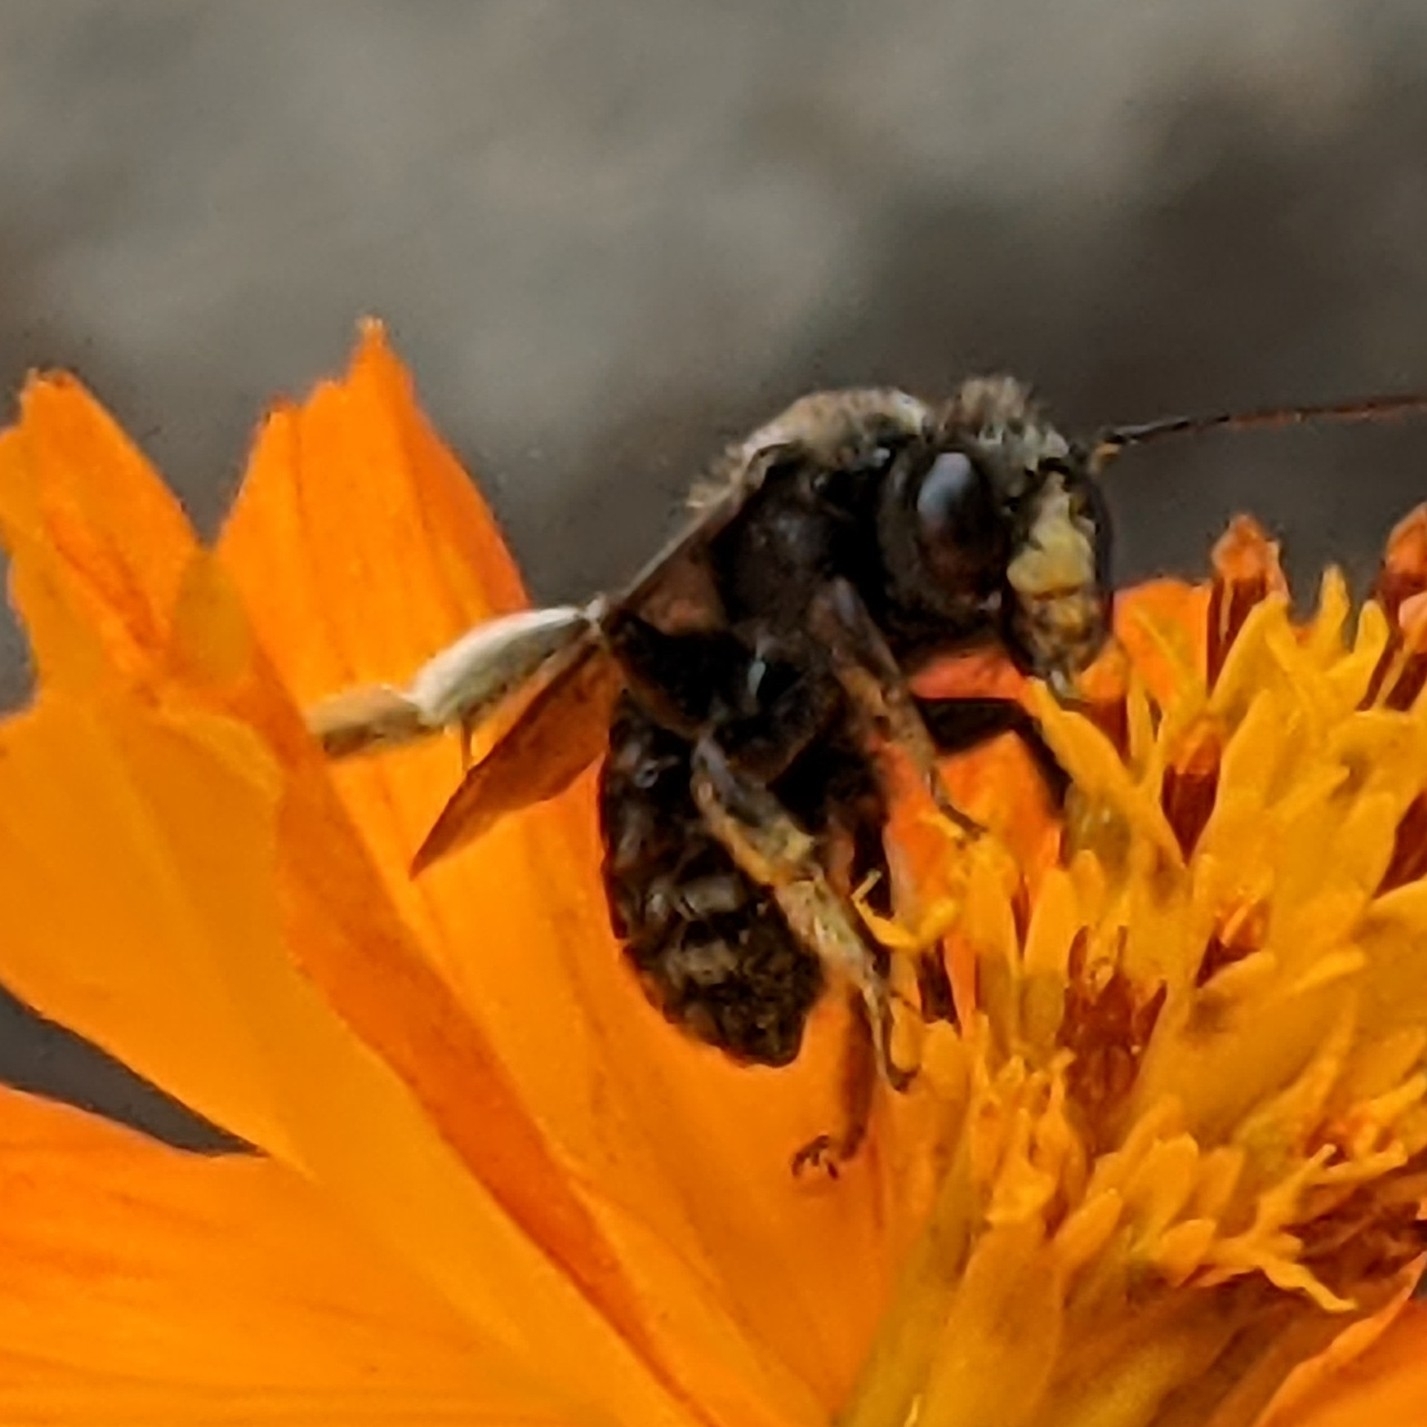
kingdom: Animalia
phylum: Arthropoda
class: Insecta
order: Hymenoptera
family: Apidae
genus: Melissodes
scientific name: Melissodes bimaculatus
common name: Two-spotted long-horned bee
